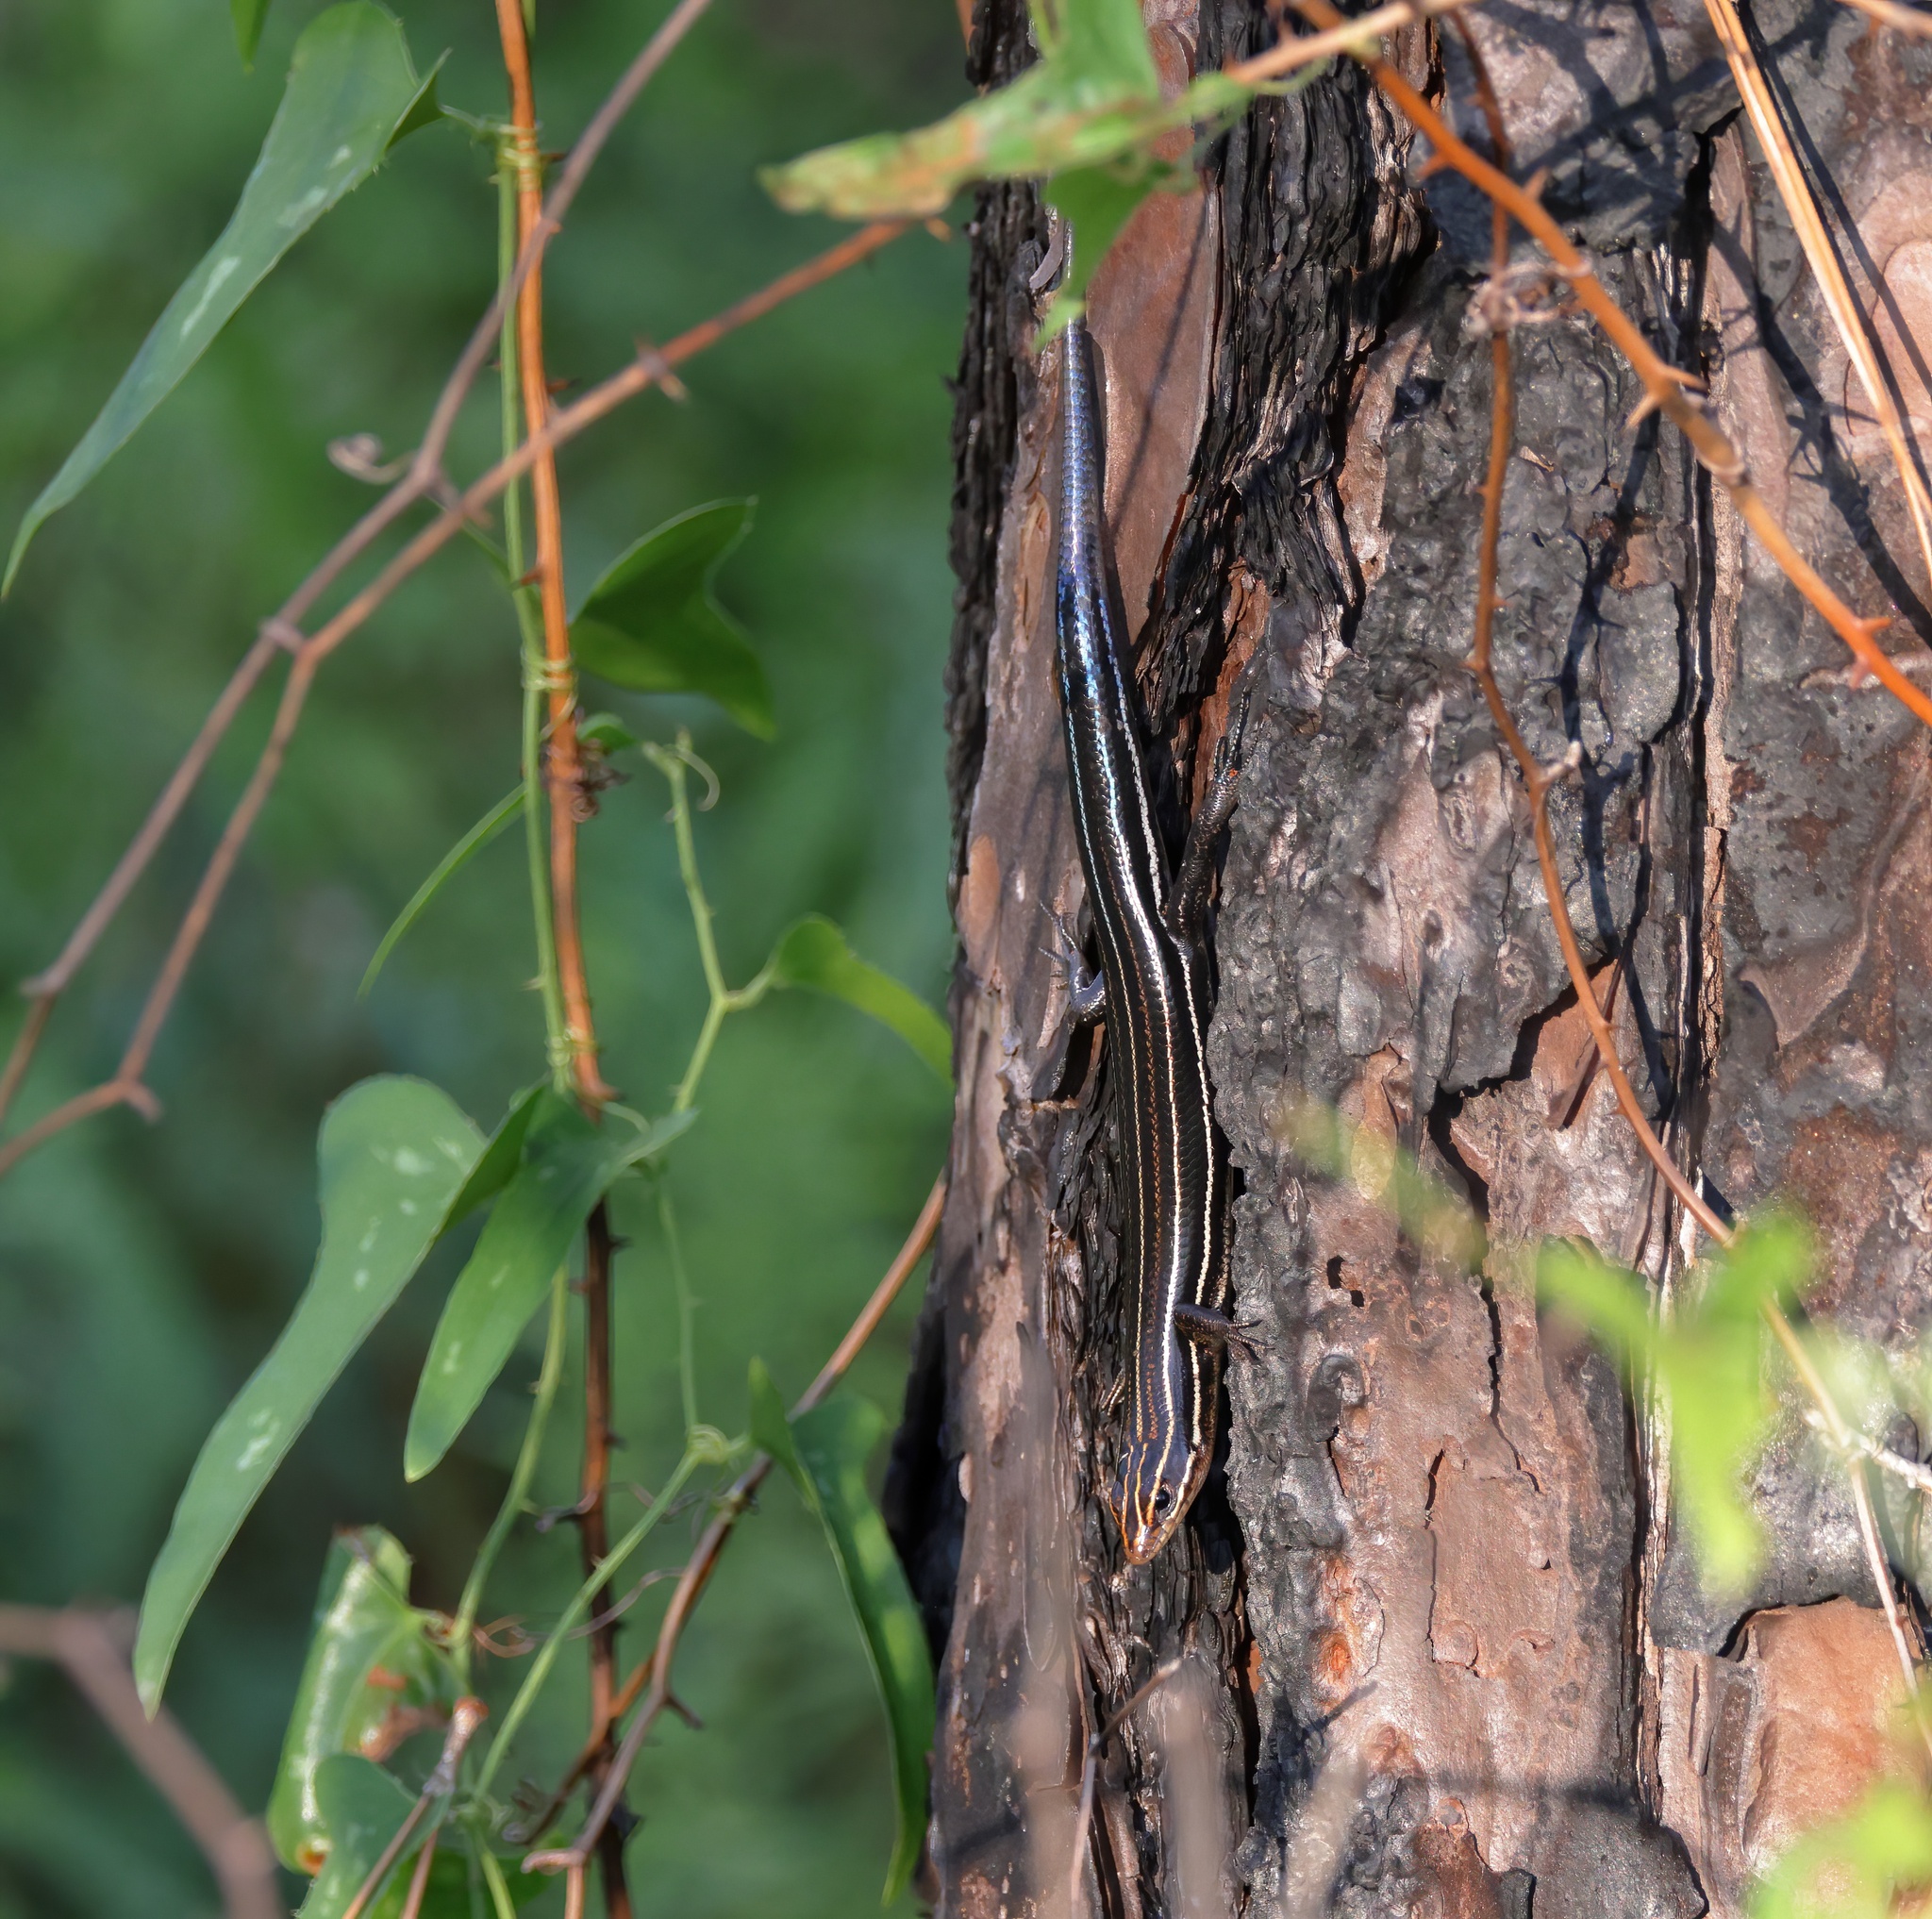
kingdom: Animalia
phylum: Chordata
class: Squamata
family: Scincidae
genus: Plestiodon
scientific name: Plestiodon inexpectatus
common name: Southeastern five-lined skink
